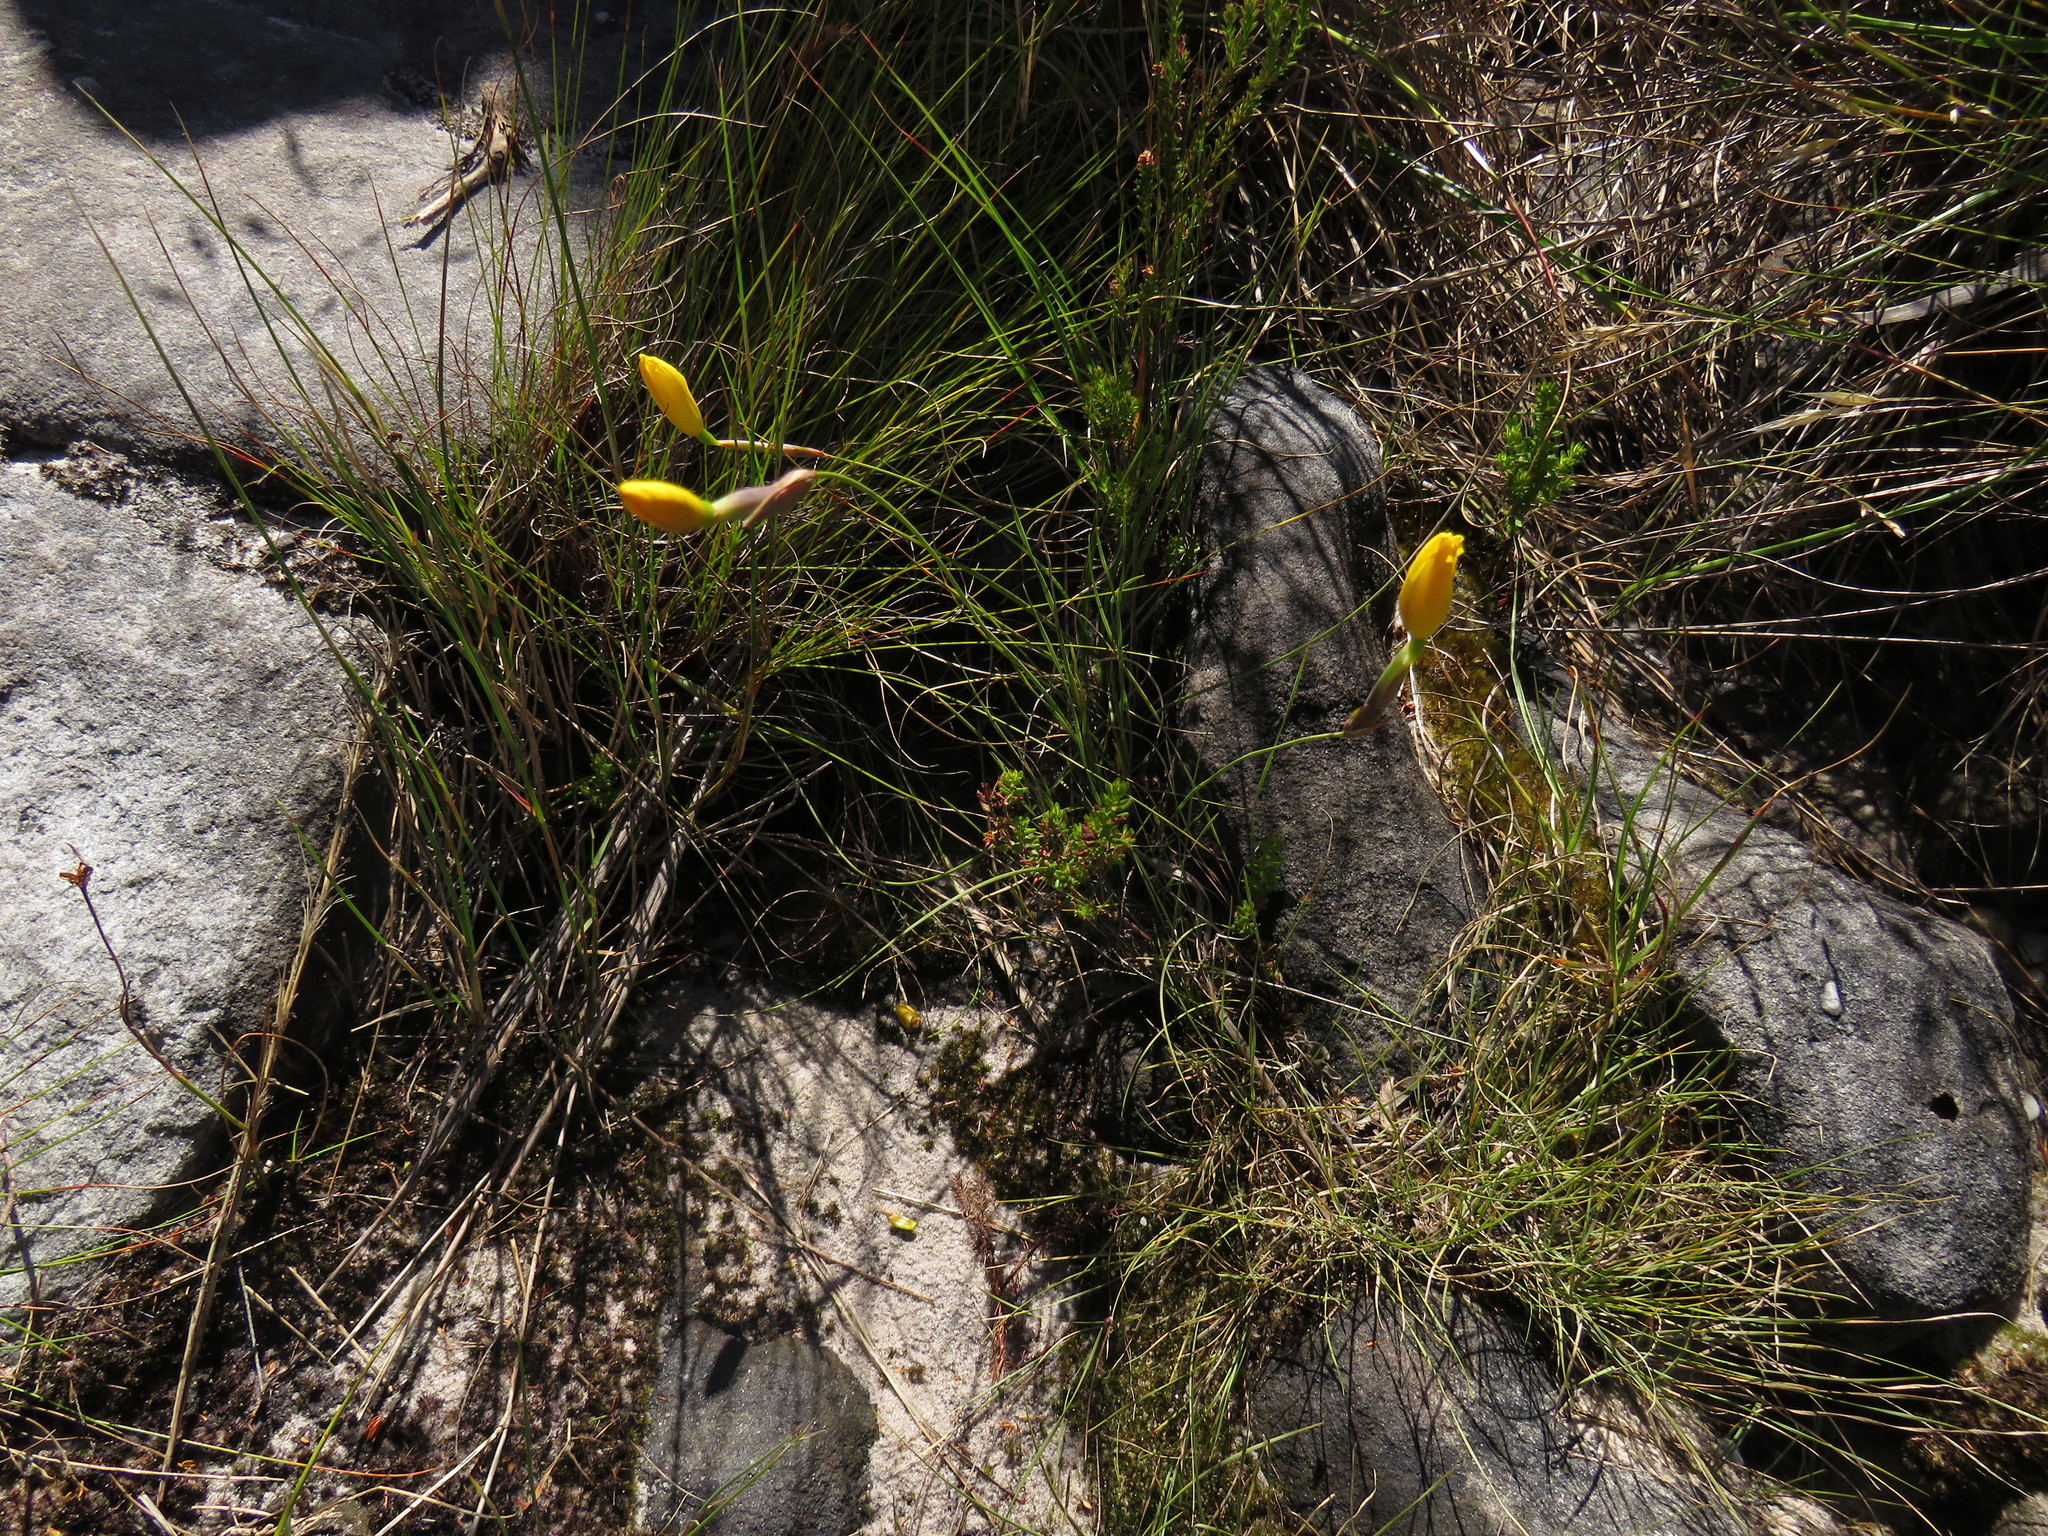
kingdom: Plantae
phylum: Tracheophyta
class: Liliopsida
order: Asparagales
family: Iridaceae
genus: Bobartia
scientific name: Bobartia filiformis
